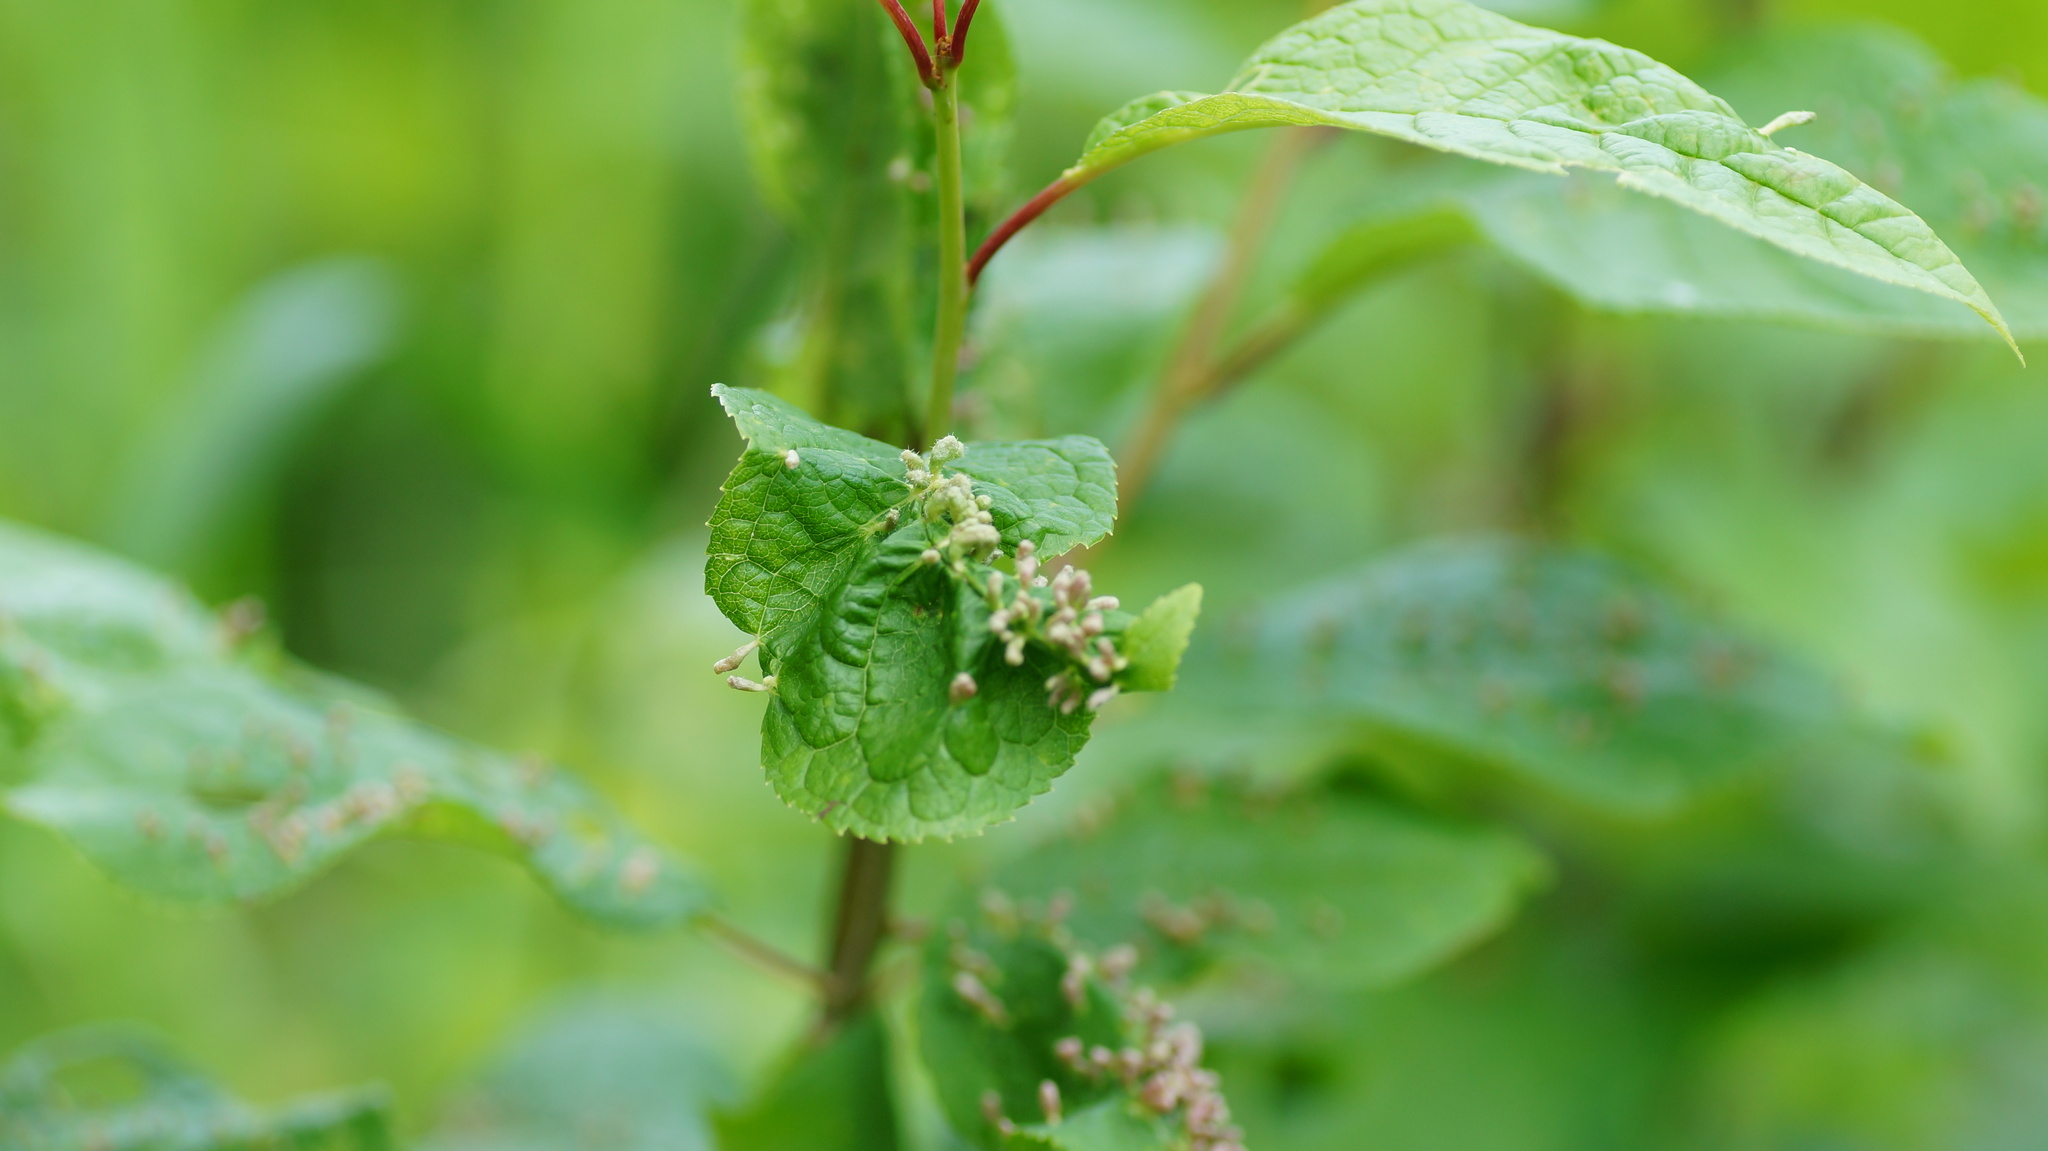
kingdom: Animalia
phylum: Arthropoda
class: Arachnida
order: Trombidiformes
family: Eriophyidae
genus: Phyllocoptes
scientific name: Phyllocoptes eupadi
